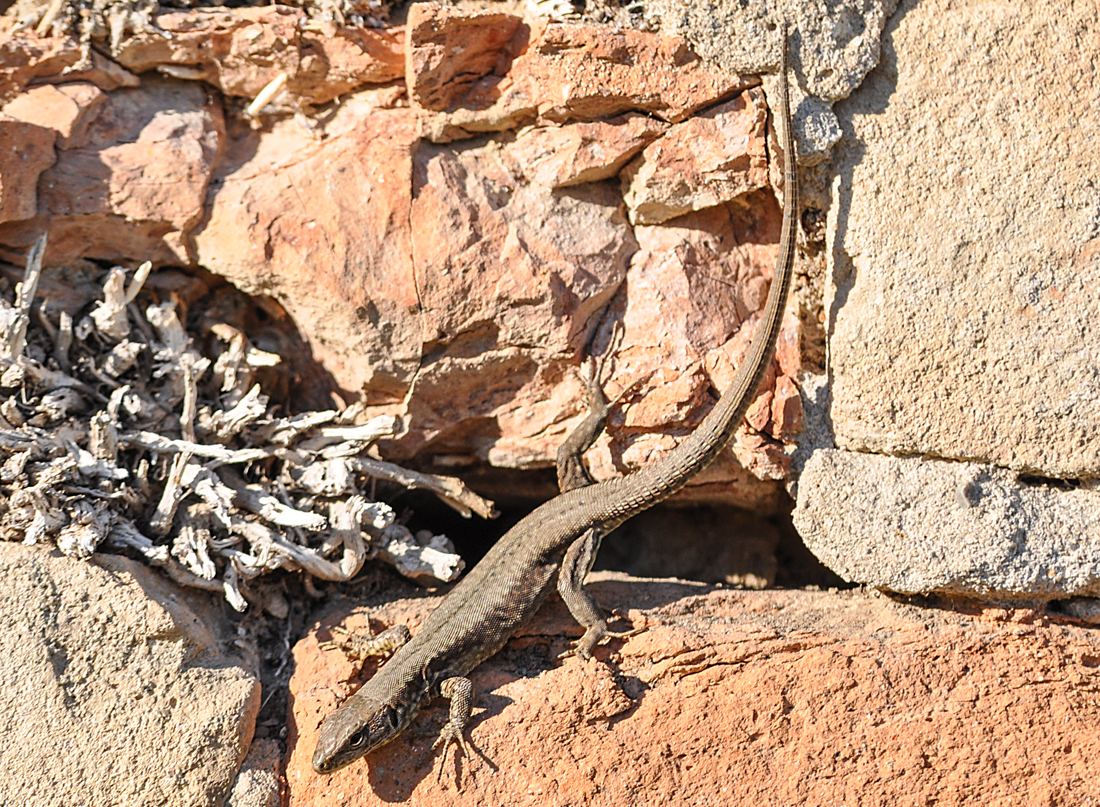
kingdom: Animalia
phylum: Chordata
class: Squamata
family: Lacertidae
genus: Podarcis
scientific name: Podarcis muralis
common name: Common wall lizard
